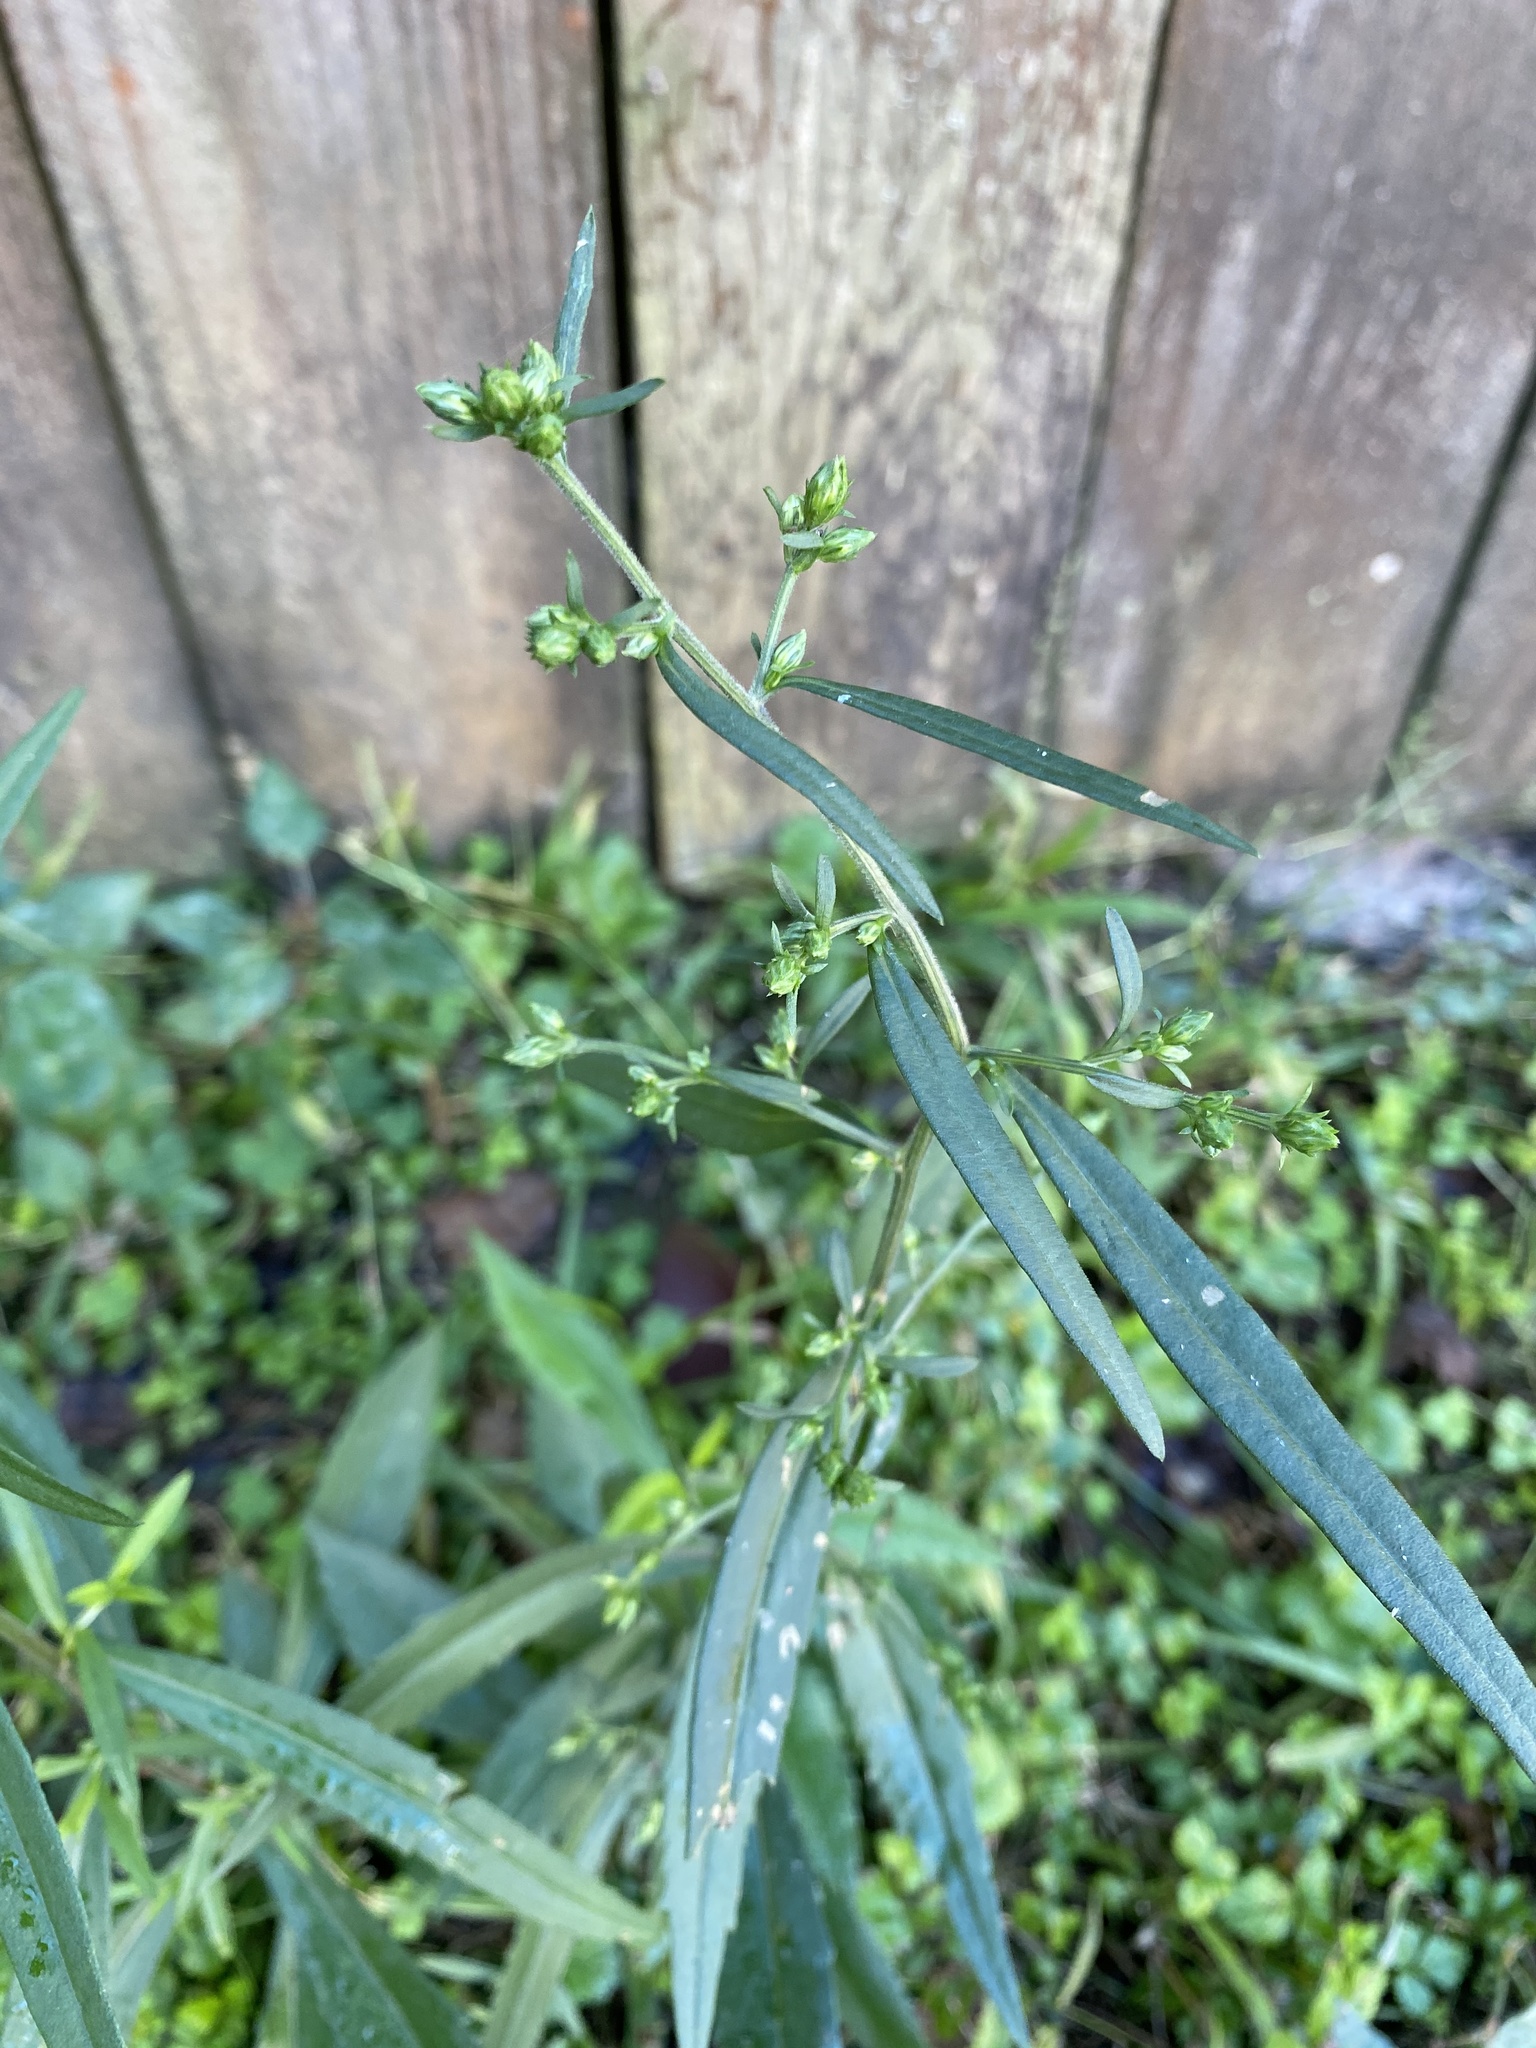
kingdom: Plantae
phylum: Tracheophyta
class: Magnoliopsida
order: Asterales
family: Asteraceae
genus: Symphyotrichum
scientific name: Symphyotrichum lateriflorum
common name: Calico aster
